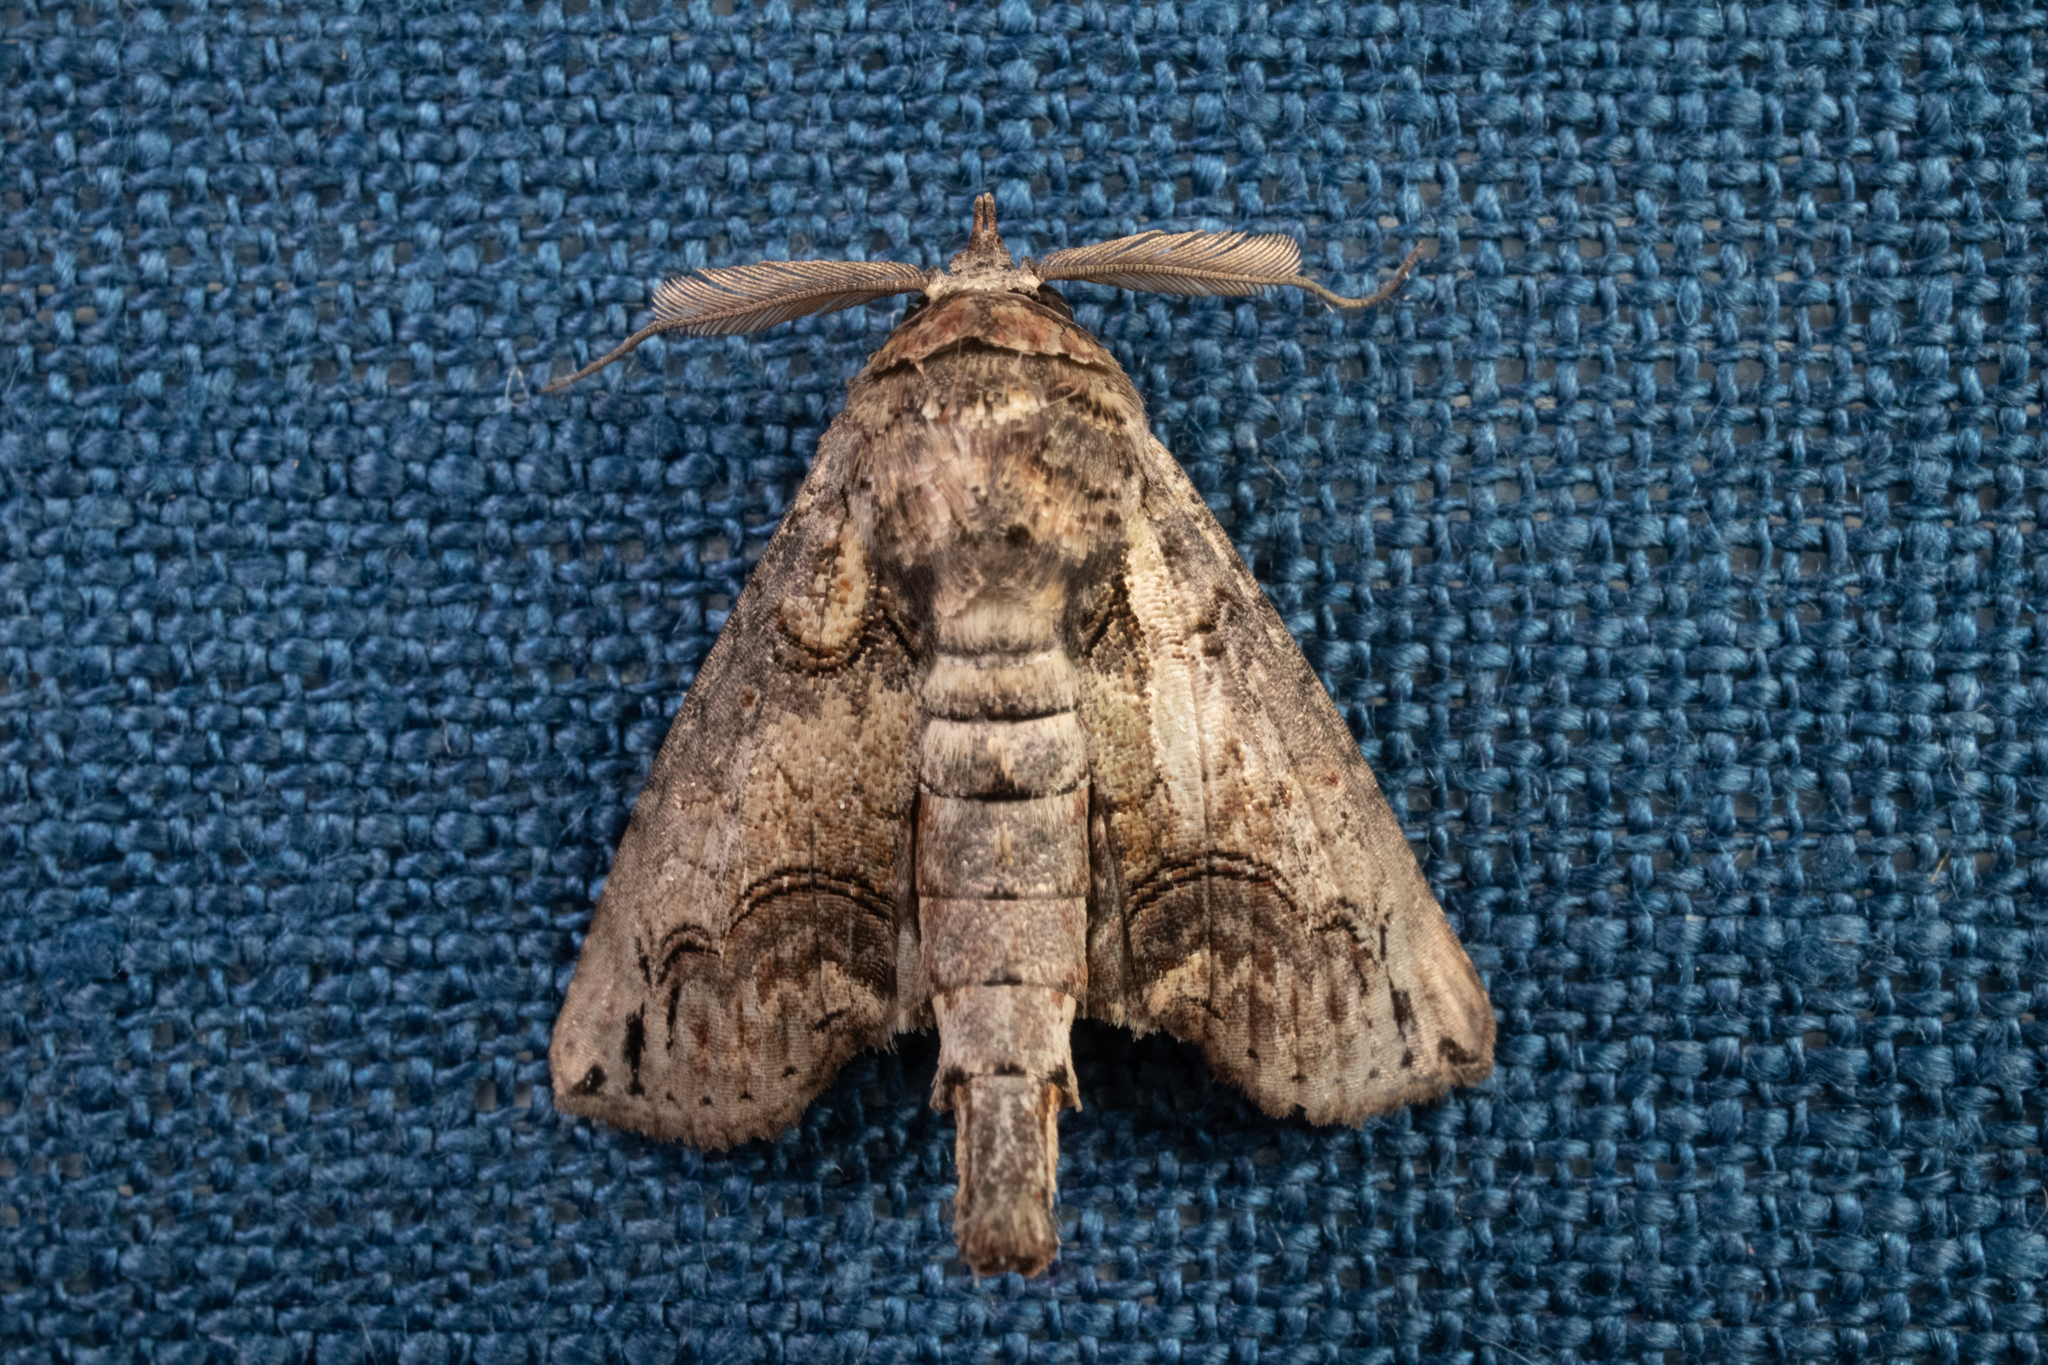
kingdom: Animalia
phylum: Arthropoda
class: Insecta
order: Lepidoptera
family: Euteliidae
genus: Paectes
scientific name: Paectes abrostoloides
